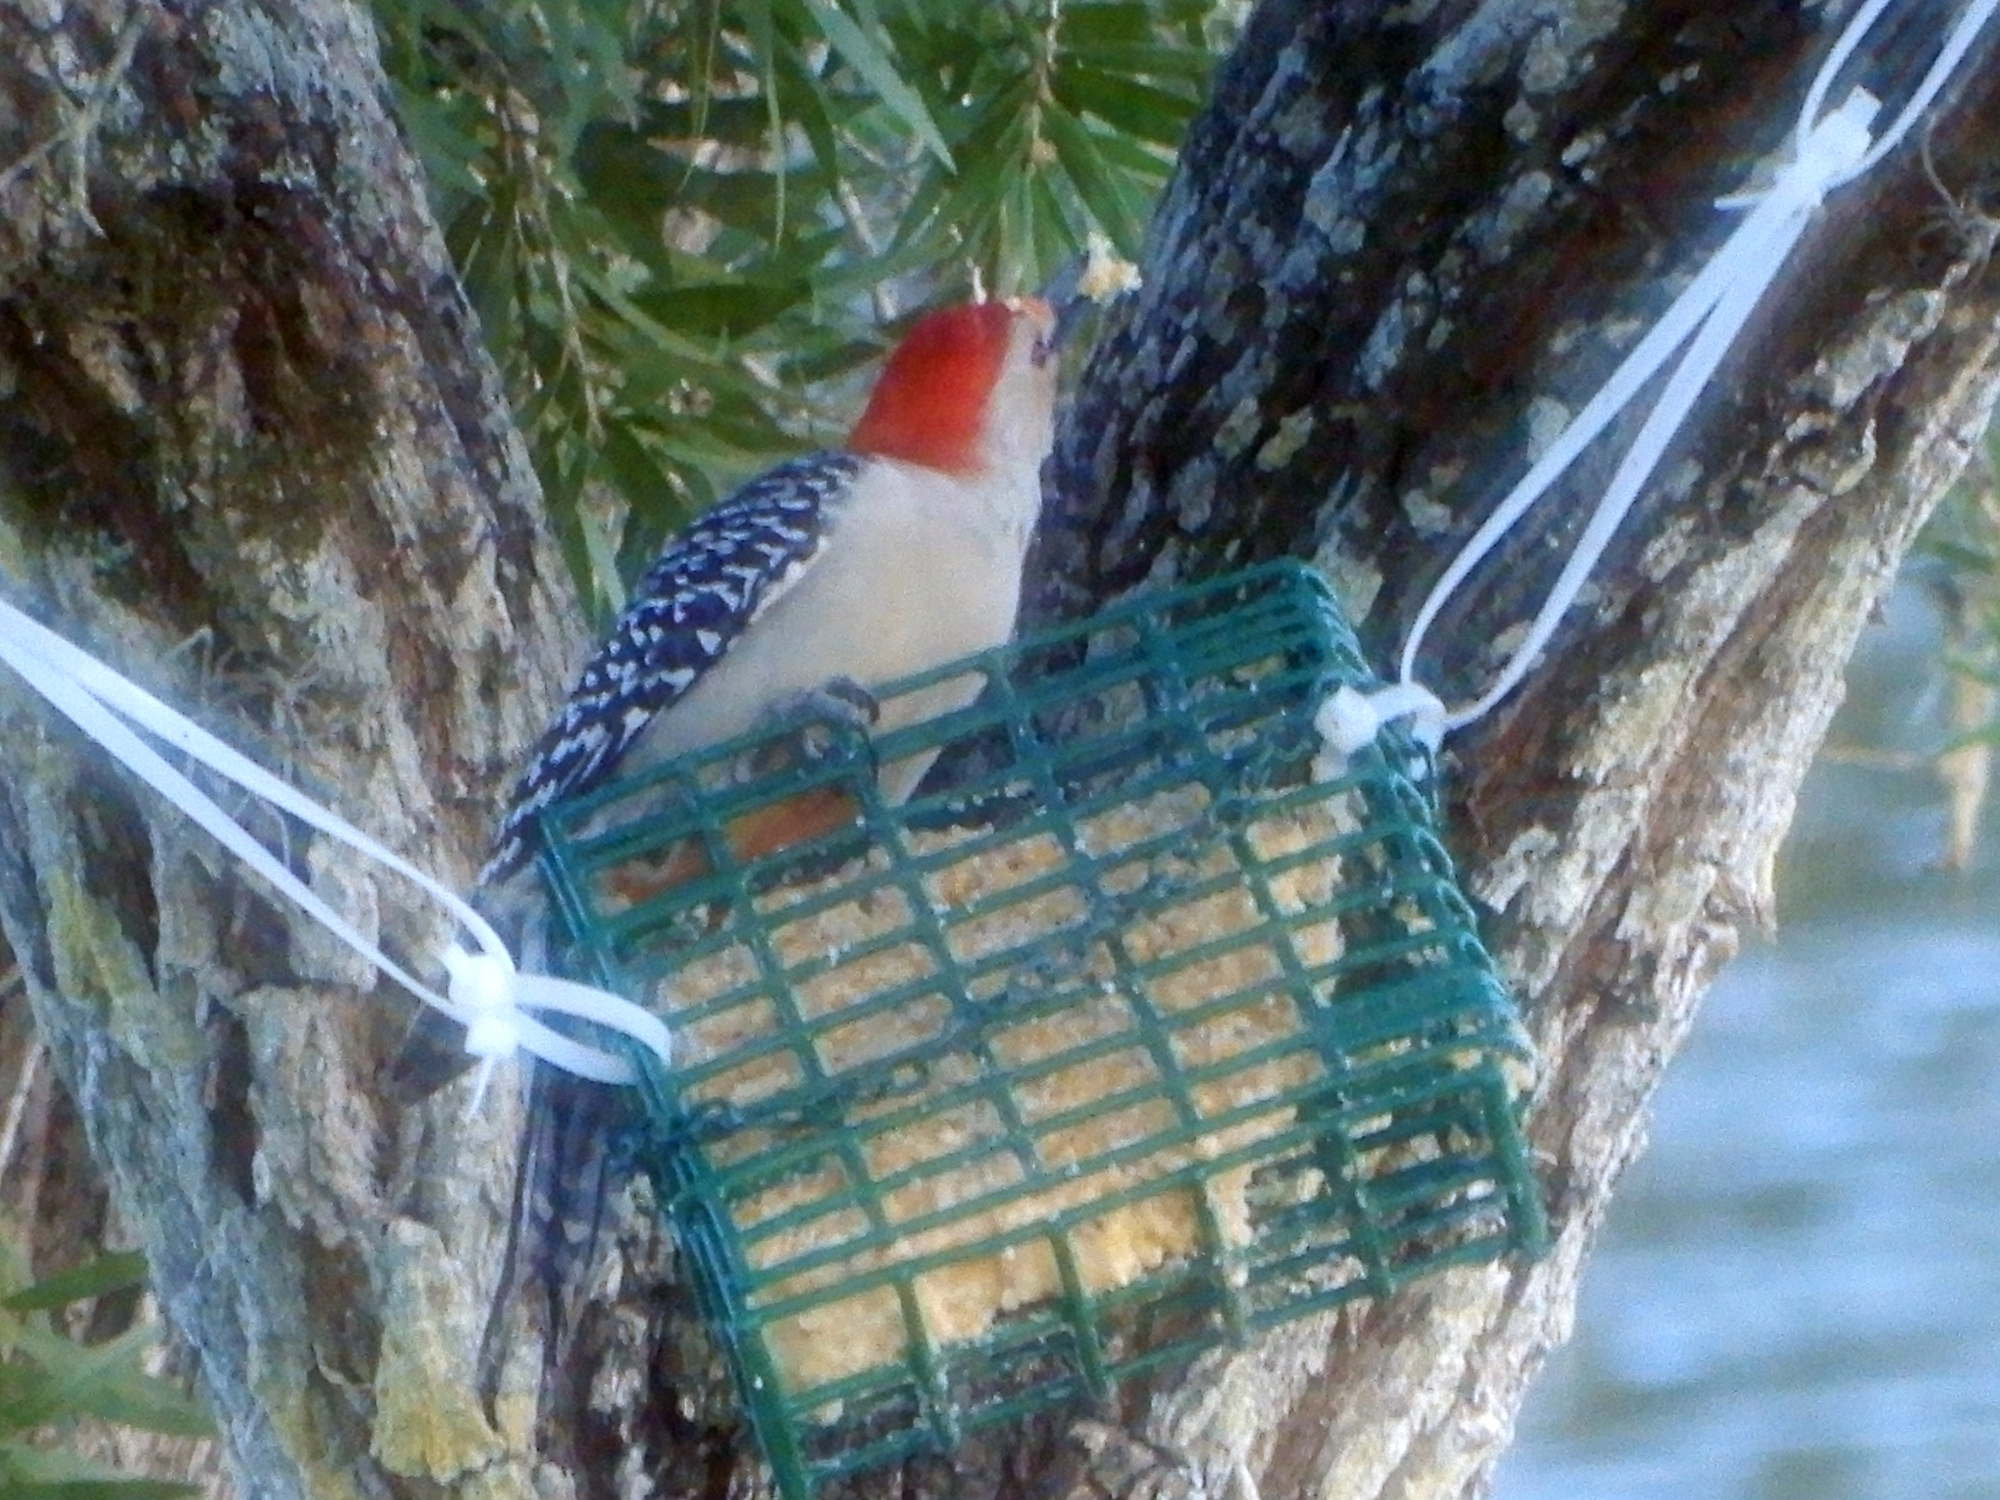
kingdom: Animalia
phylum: Chordata
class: Aves
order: Piciformes
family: Picidae
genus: Melanerpes
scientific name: Melanerpes carolinus
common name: Red-bellied woodpecker
